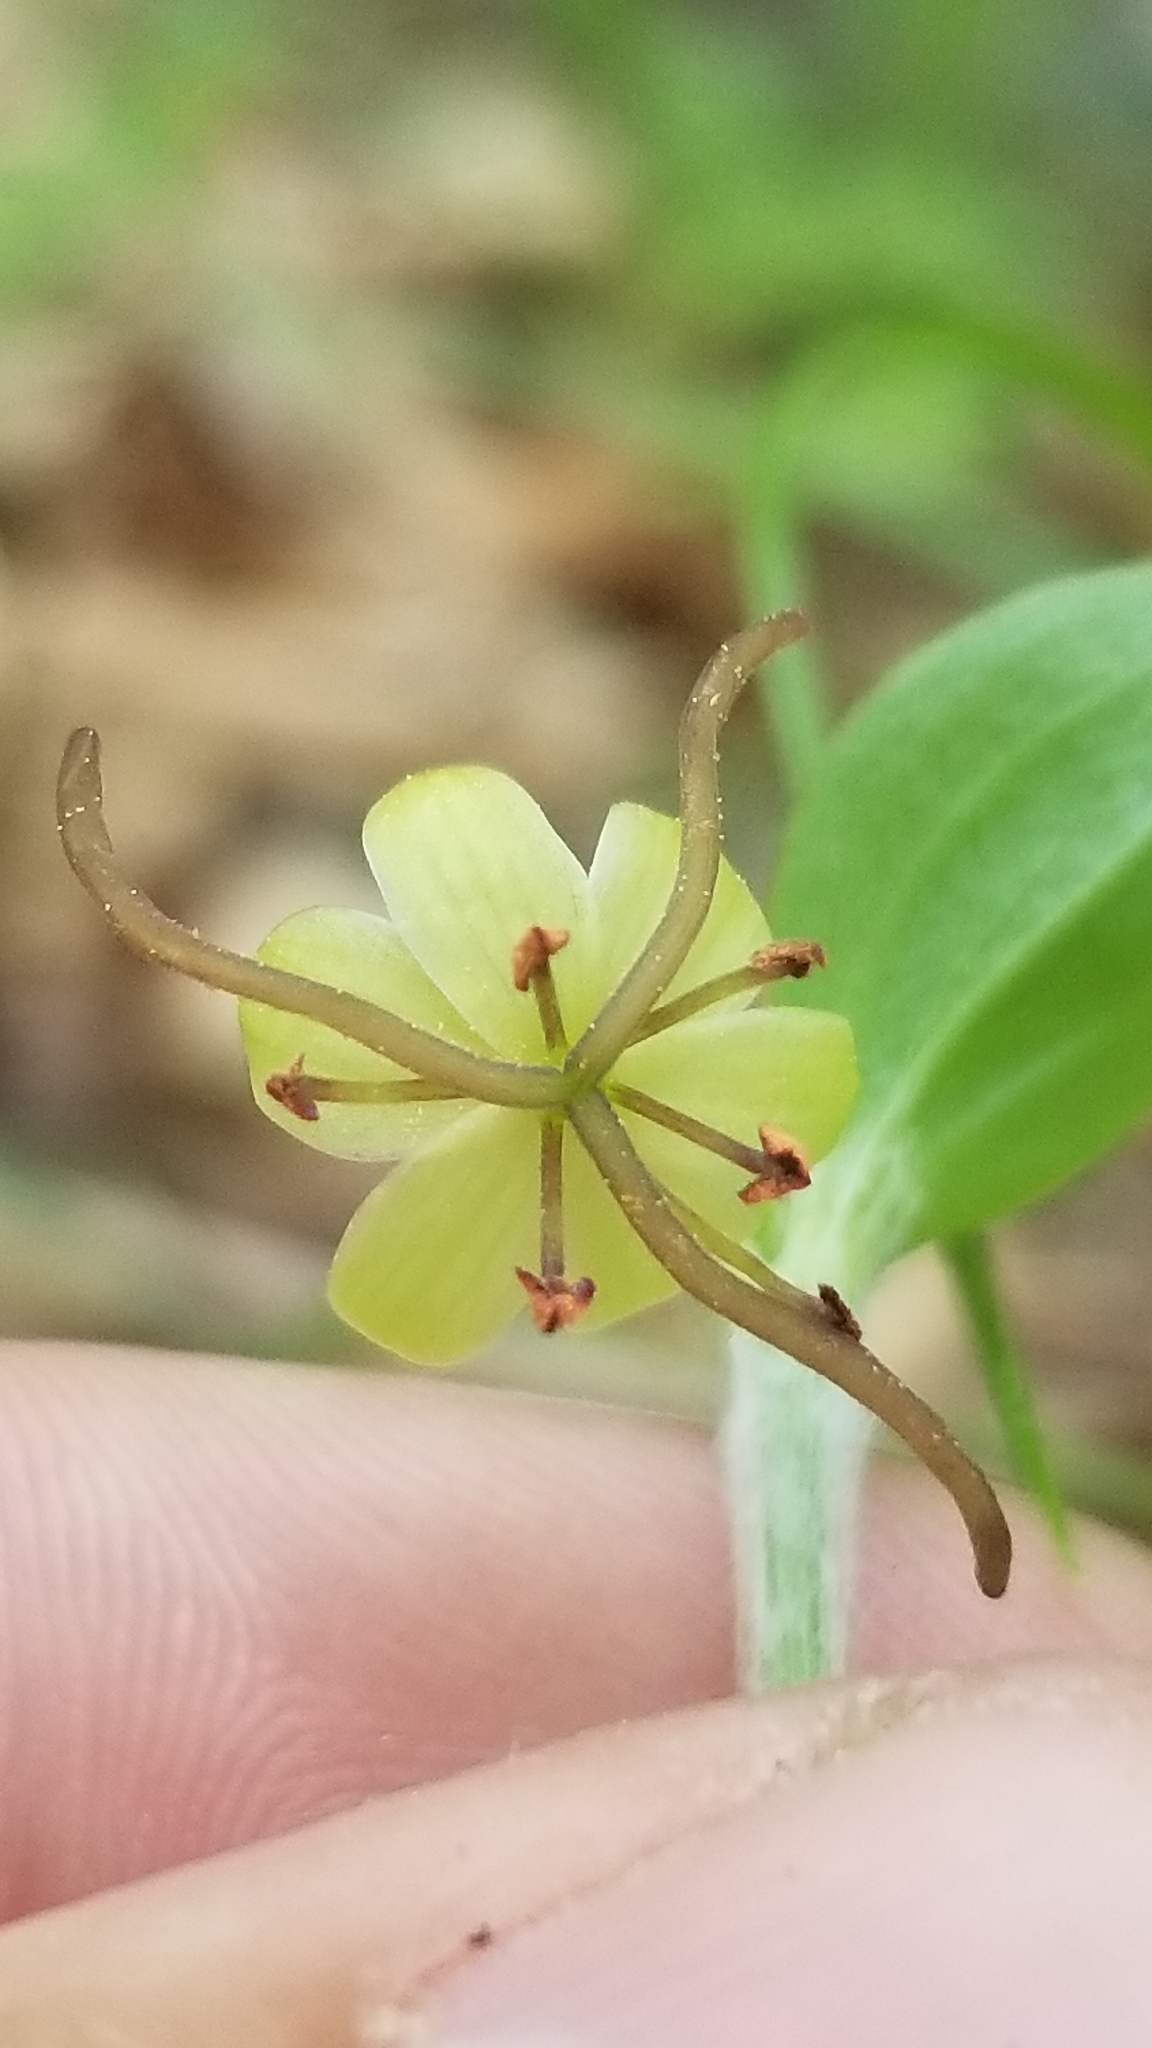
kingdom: Plantae
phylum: Tracheophyta
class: Liliopsida
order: Liliales
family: Liliaceae
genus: Medeola
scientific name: Medeola virginiana
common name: Indian cucumber-root
